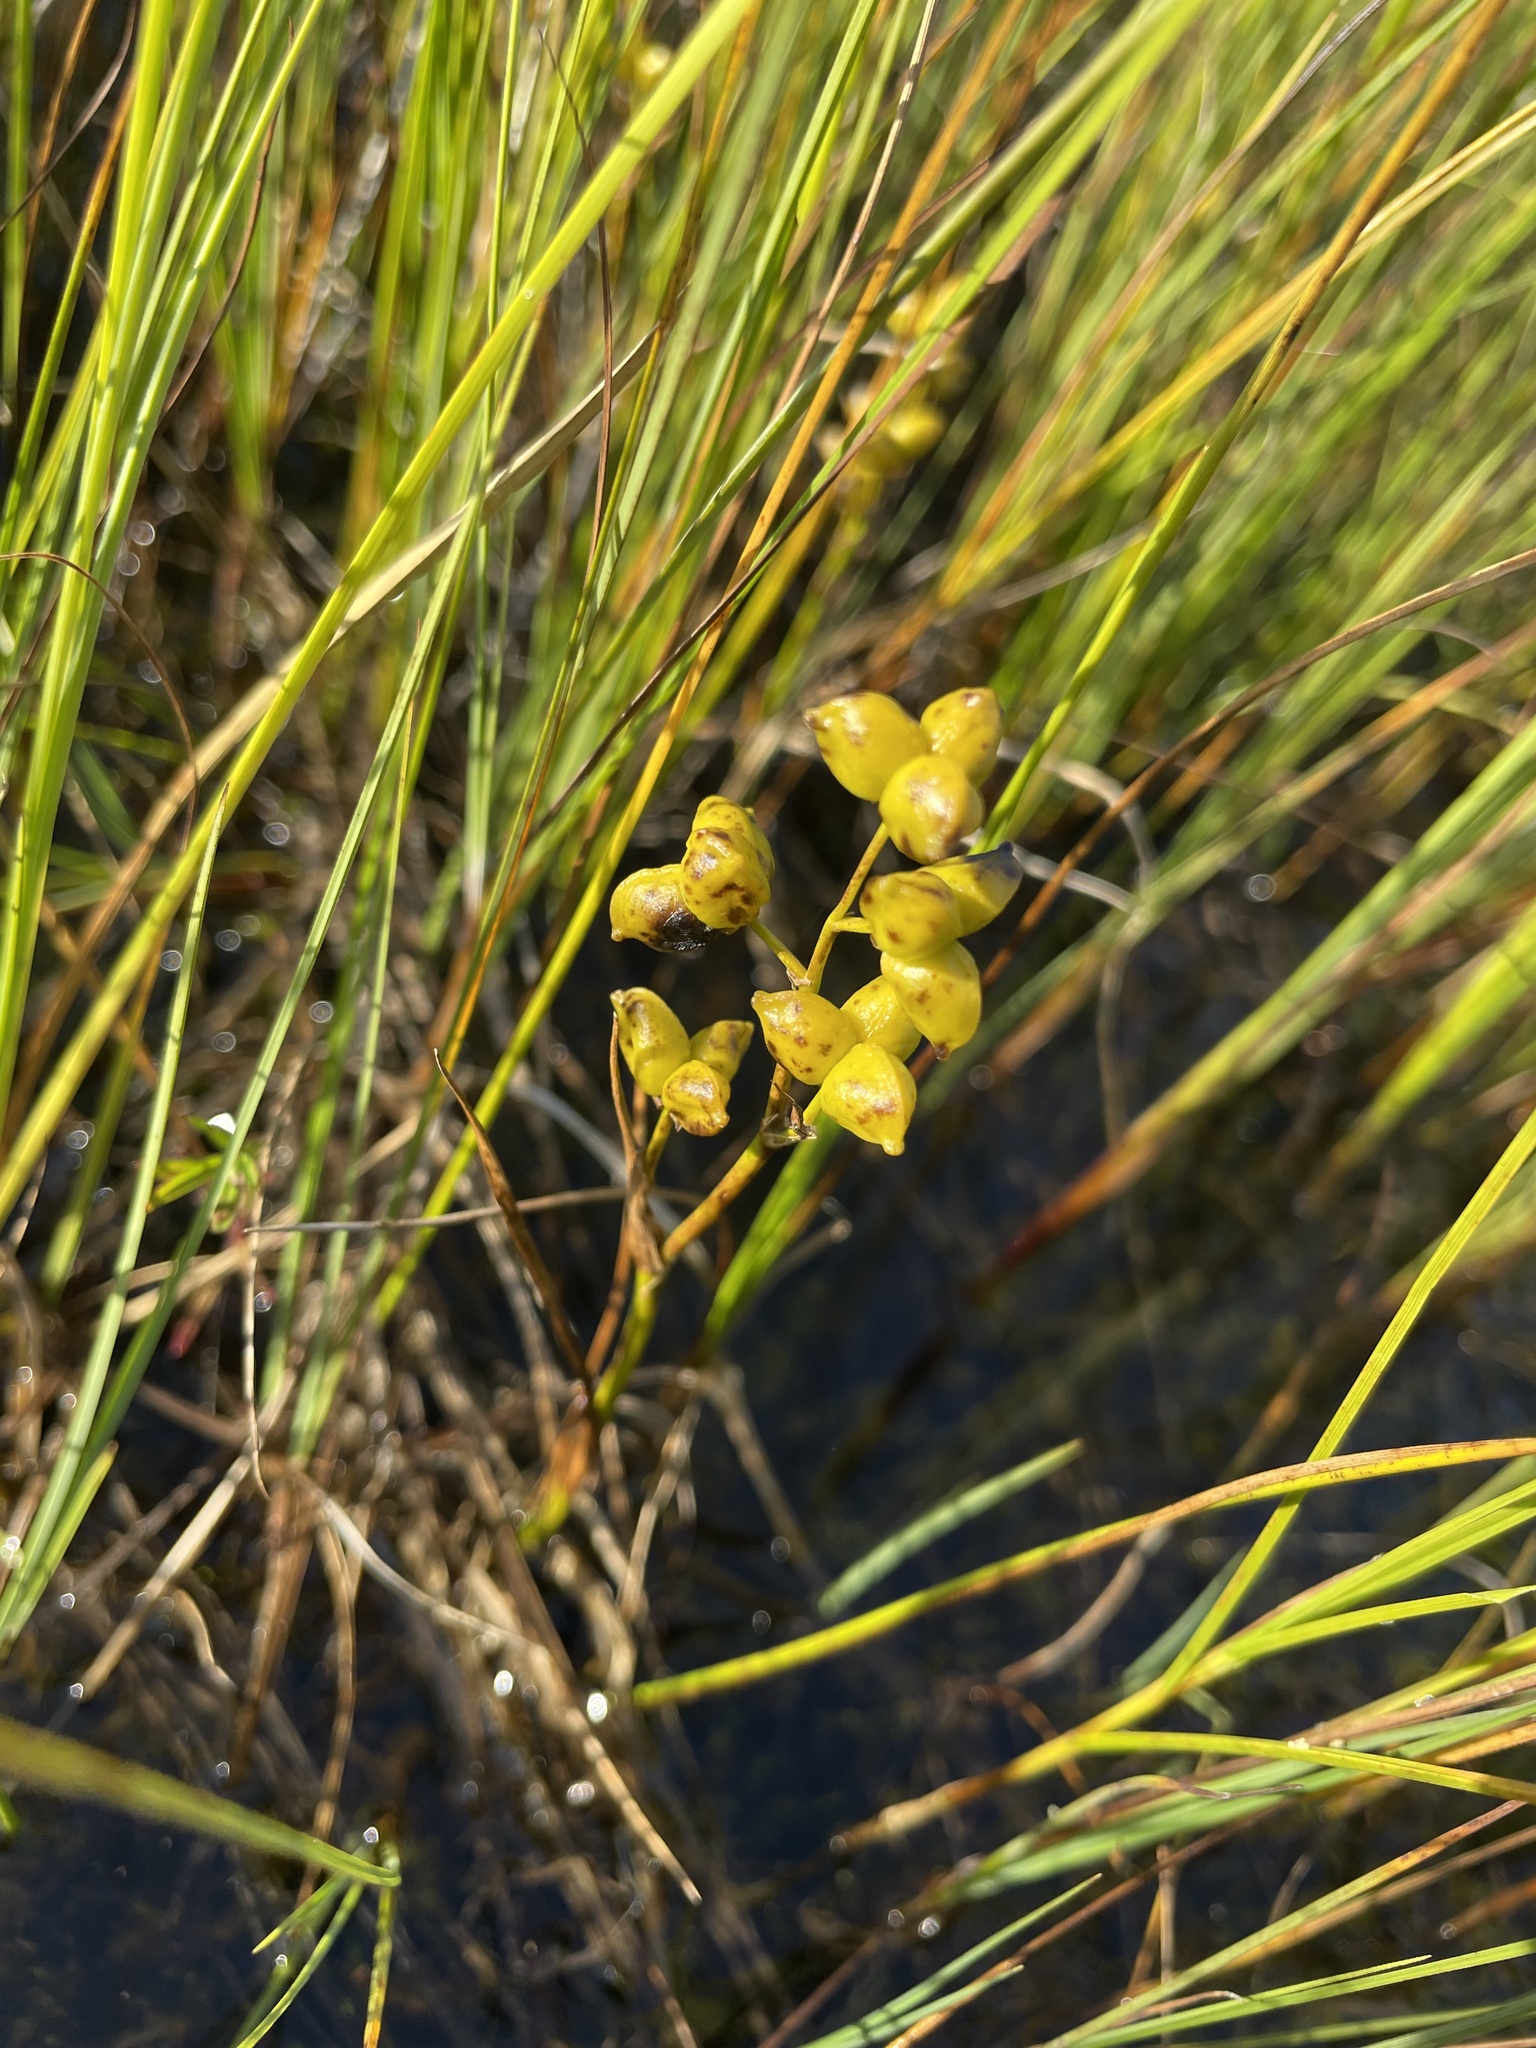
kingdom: Plantae
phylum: Tracheophyta
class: Liliopsida
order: Alismatales
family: Scheuchzeriaceae
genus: Scheuchzeria
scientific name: Scheuchzeria palustris
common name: Rannoch-rush
